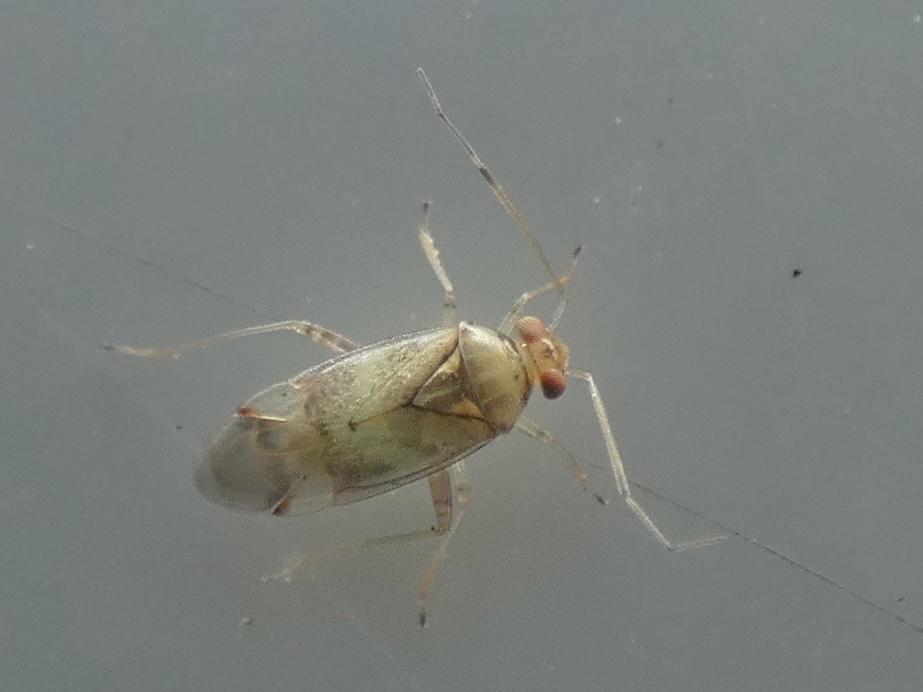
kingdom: Animalia
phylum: Arthropoda
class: Insecta
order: Hemiptera
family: Miridae
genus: Pinalitus
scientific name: Pinalitus cervinus
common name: Plant bug
